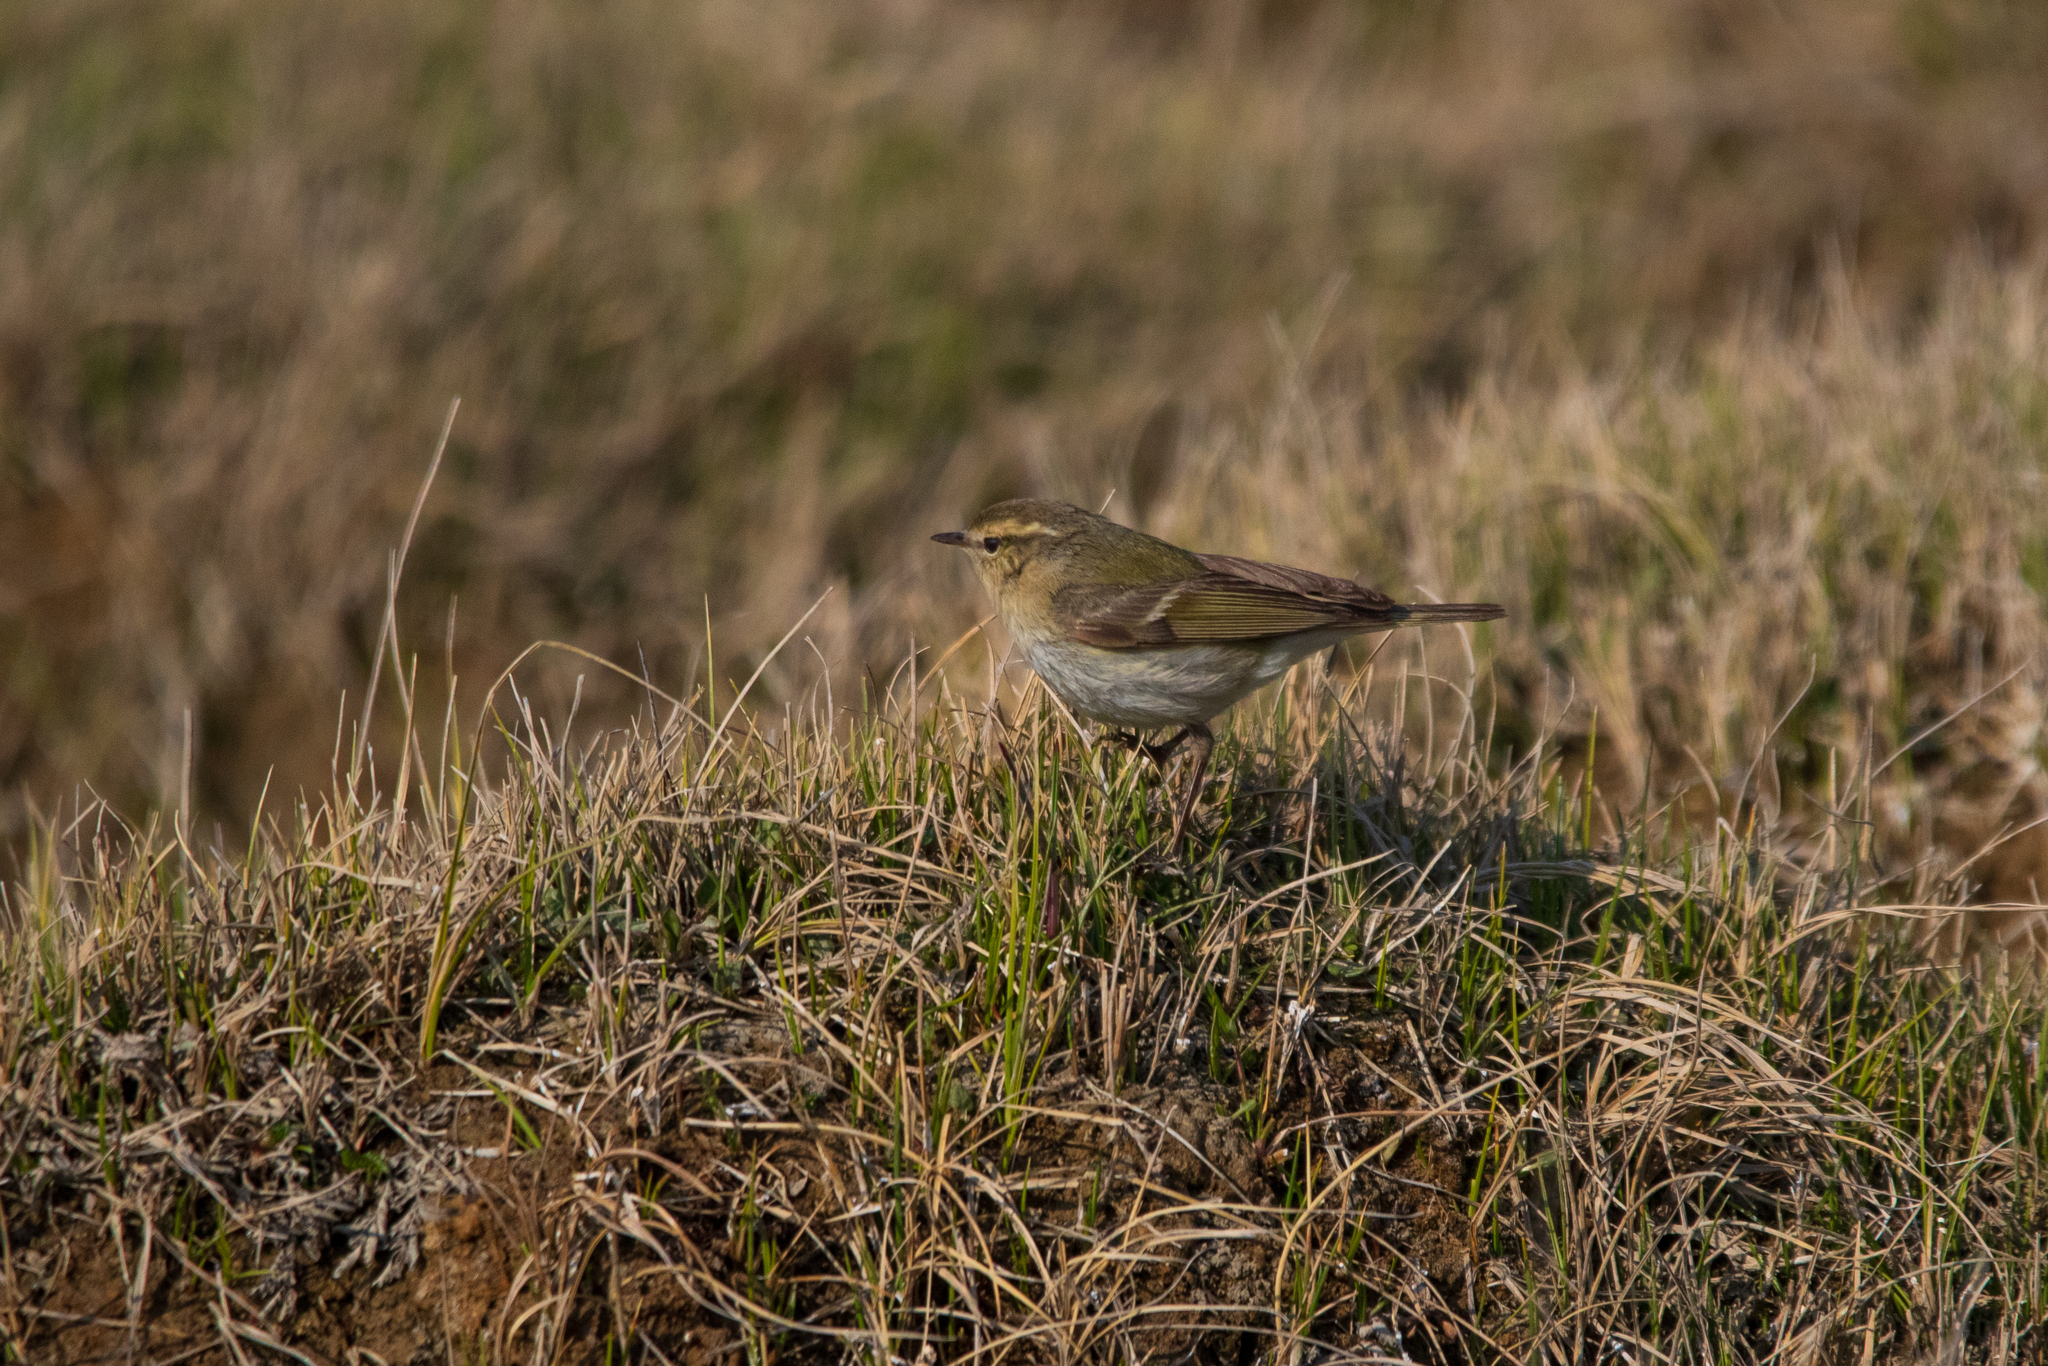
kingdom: Animalia
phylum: Chordata
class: Aves
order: Passeriformes
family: Phylloscopidae
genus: Phylloscopus
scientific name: Phylloscopus humei
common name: Hume's leaf warbler
